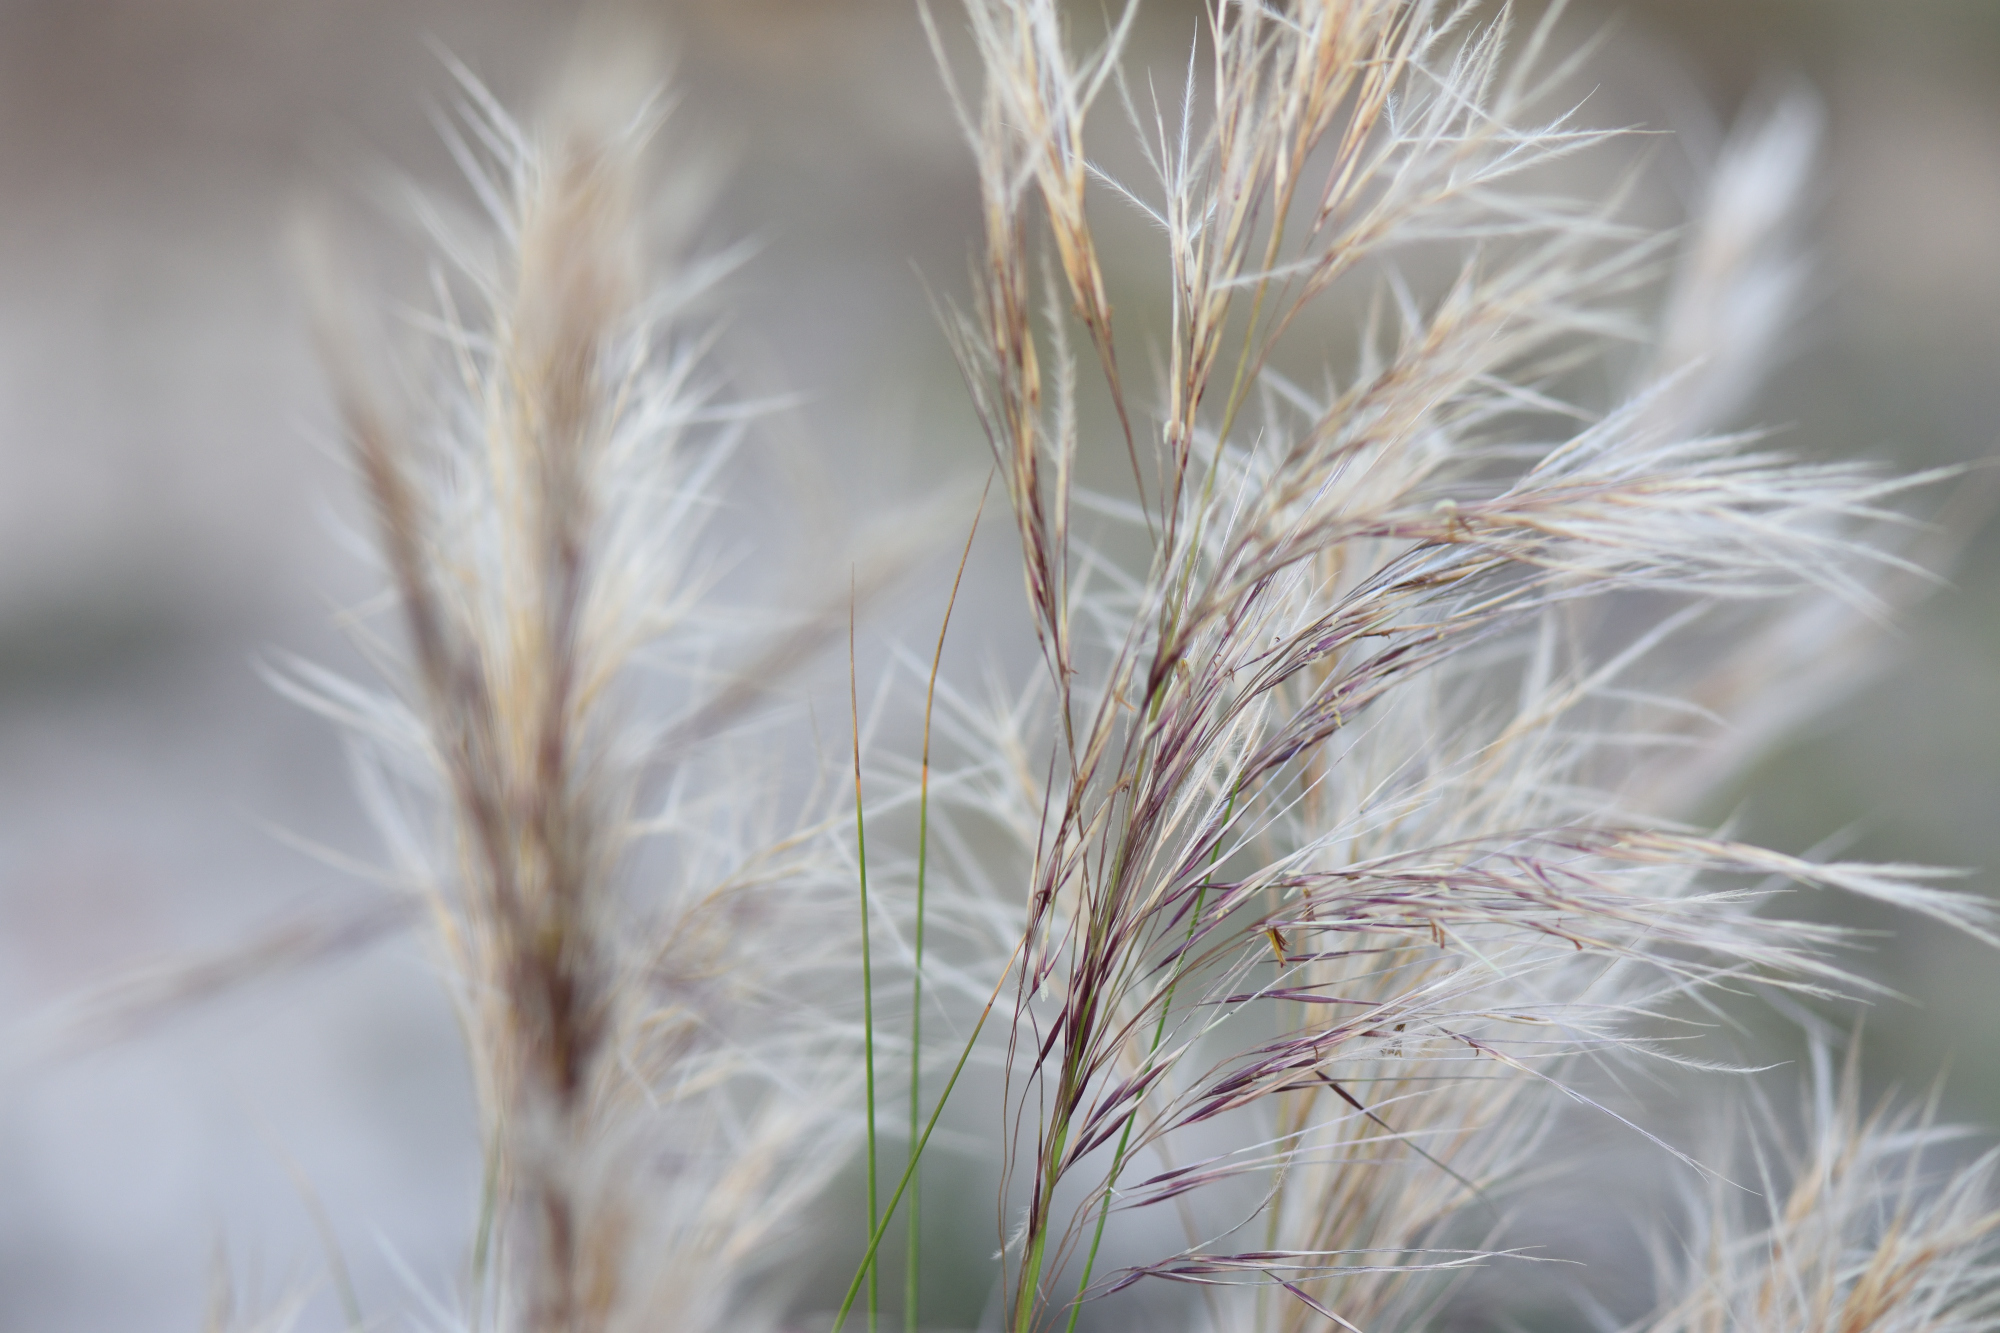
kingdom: Plantae
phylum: Tracheophyta
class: Liliopsida
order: Poales
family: Poaceae
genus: Aristida
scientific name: Aristida junciformis
